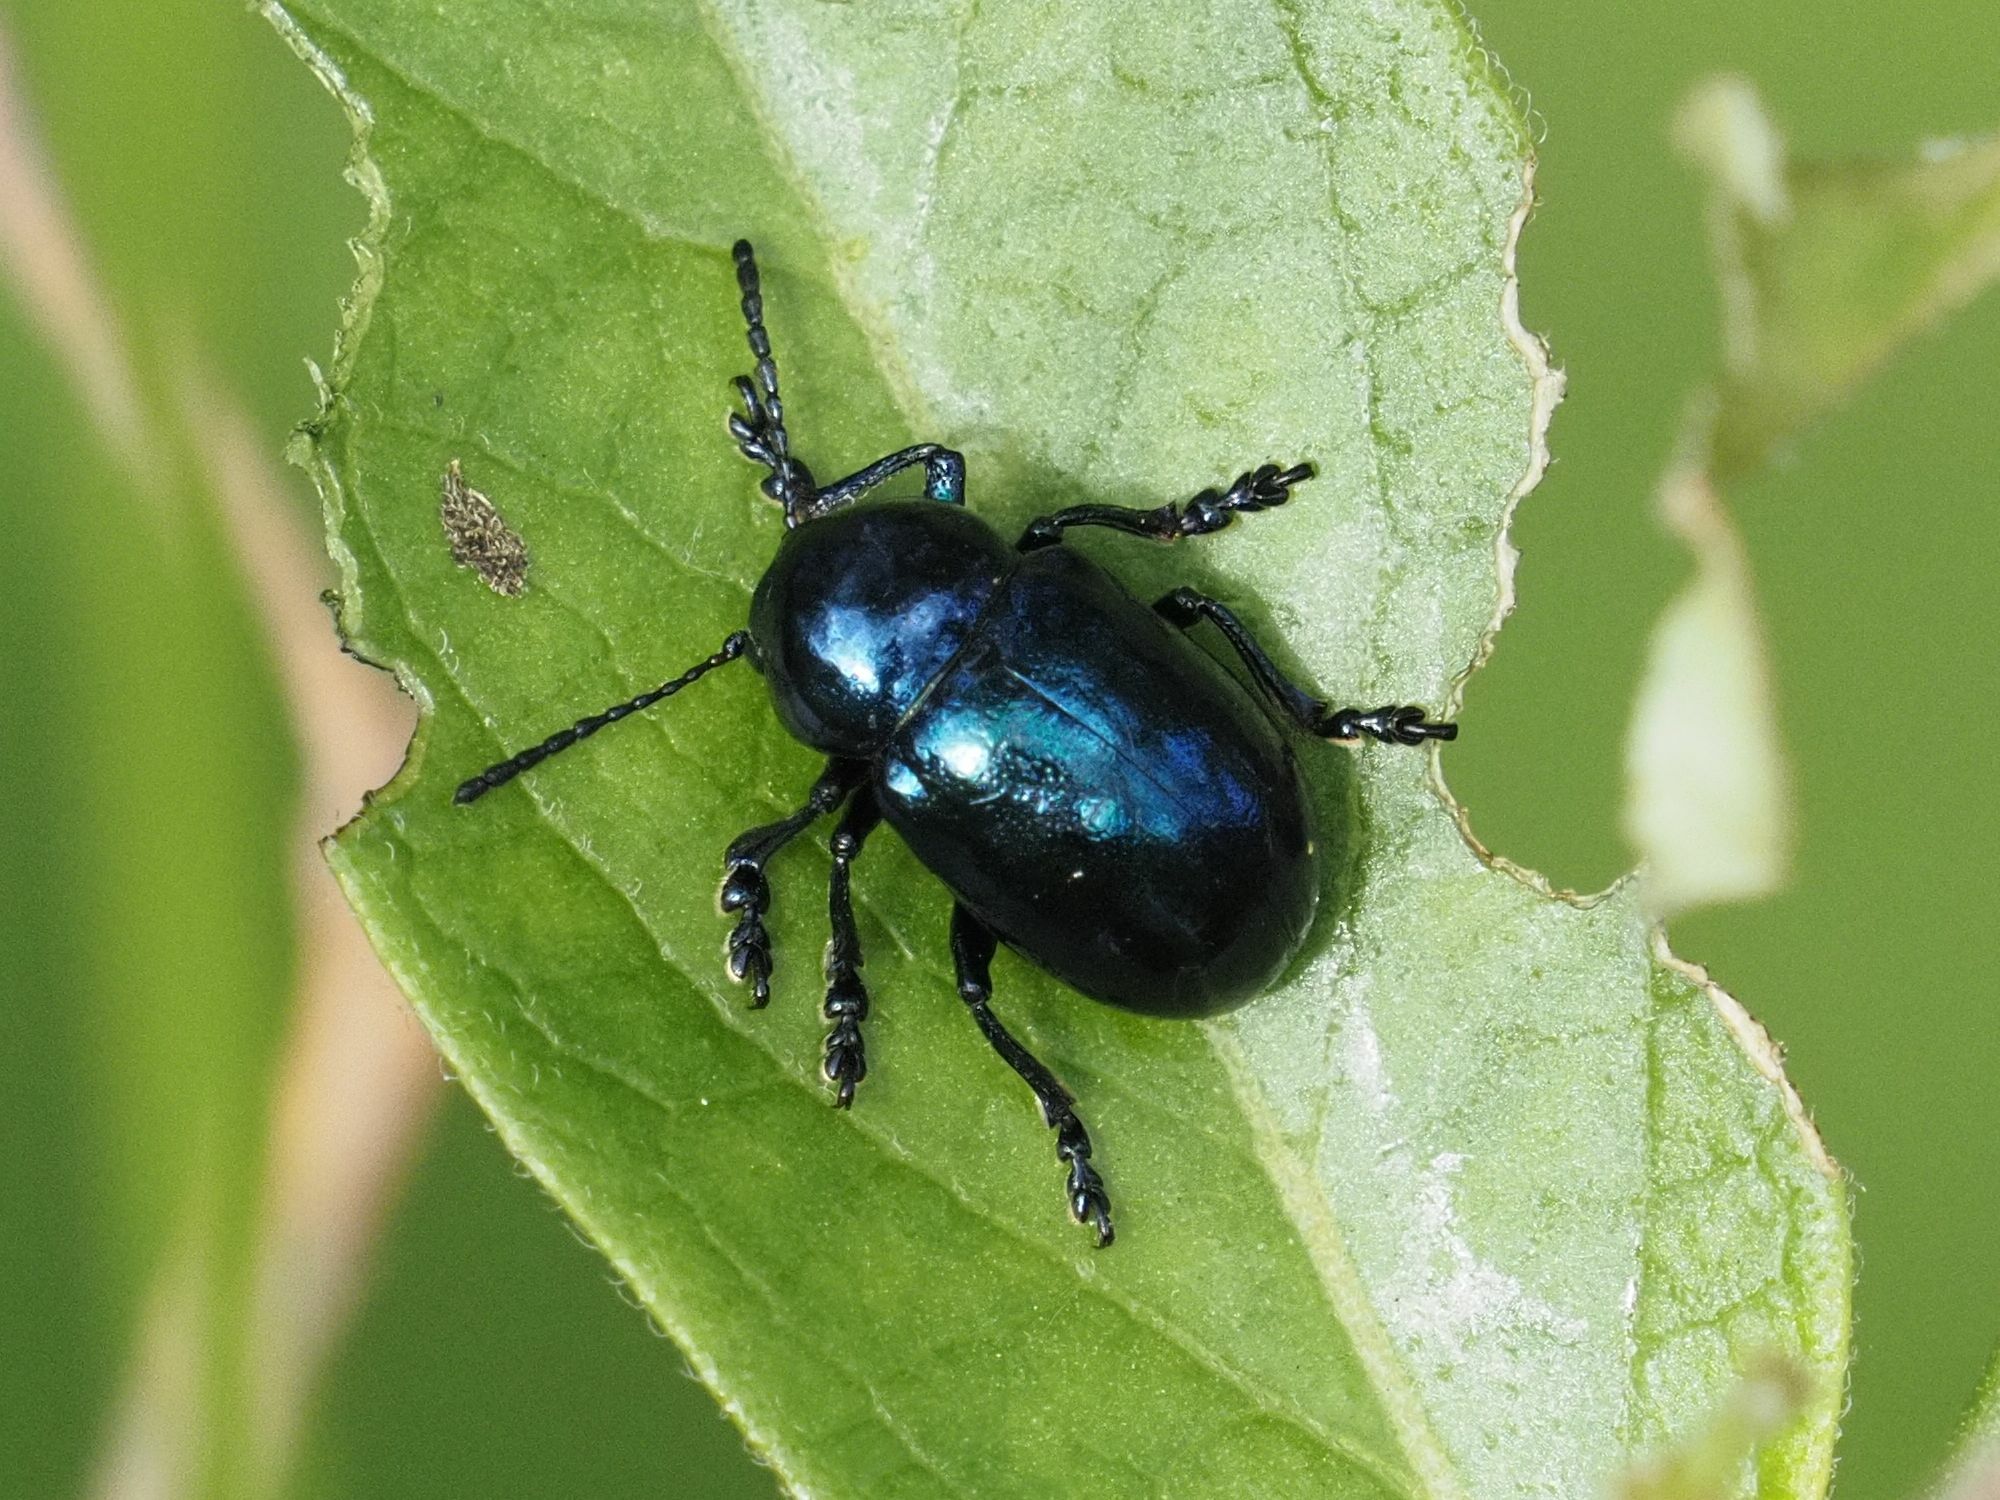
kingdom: Animalia
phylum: Arthropoda
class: Insecta
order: Coleoptera
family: Chrysomelidae
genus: Chrysochus
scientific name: Chrysochus asclepiadeus
